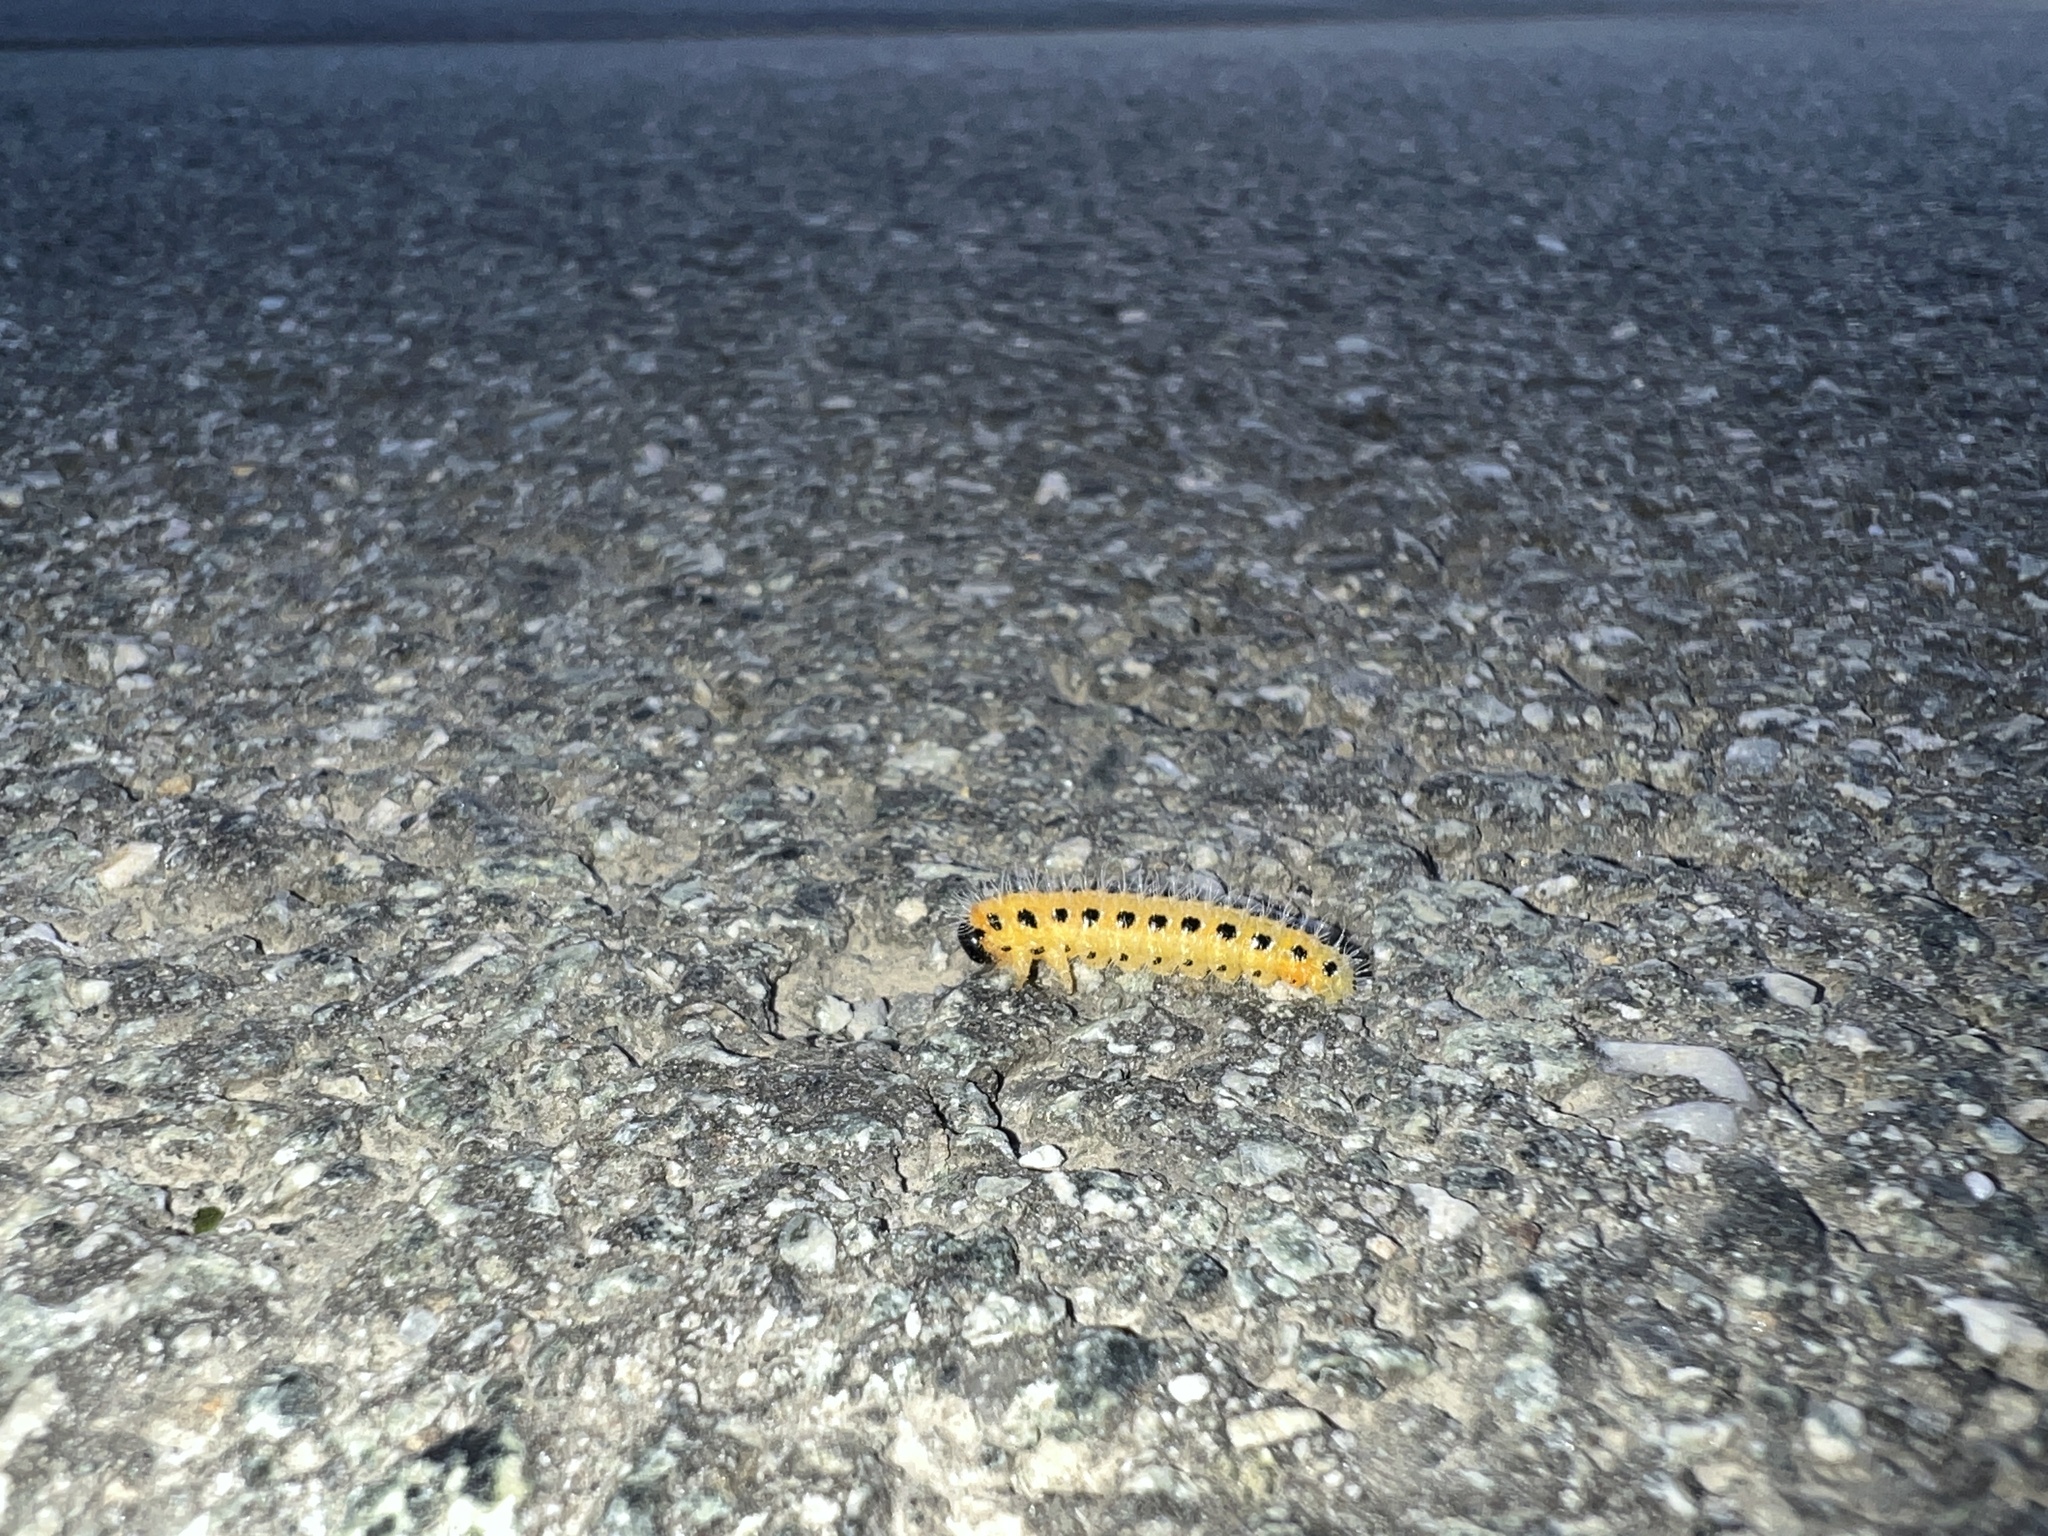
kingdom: Animalia
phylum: Arthropoda
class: Insecta
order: Hymenoptera
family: Tenthredinidae
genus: Cladius
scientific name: Cladius grandis
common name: Common sawfly
